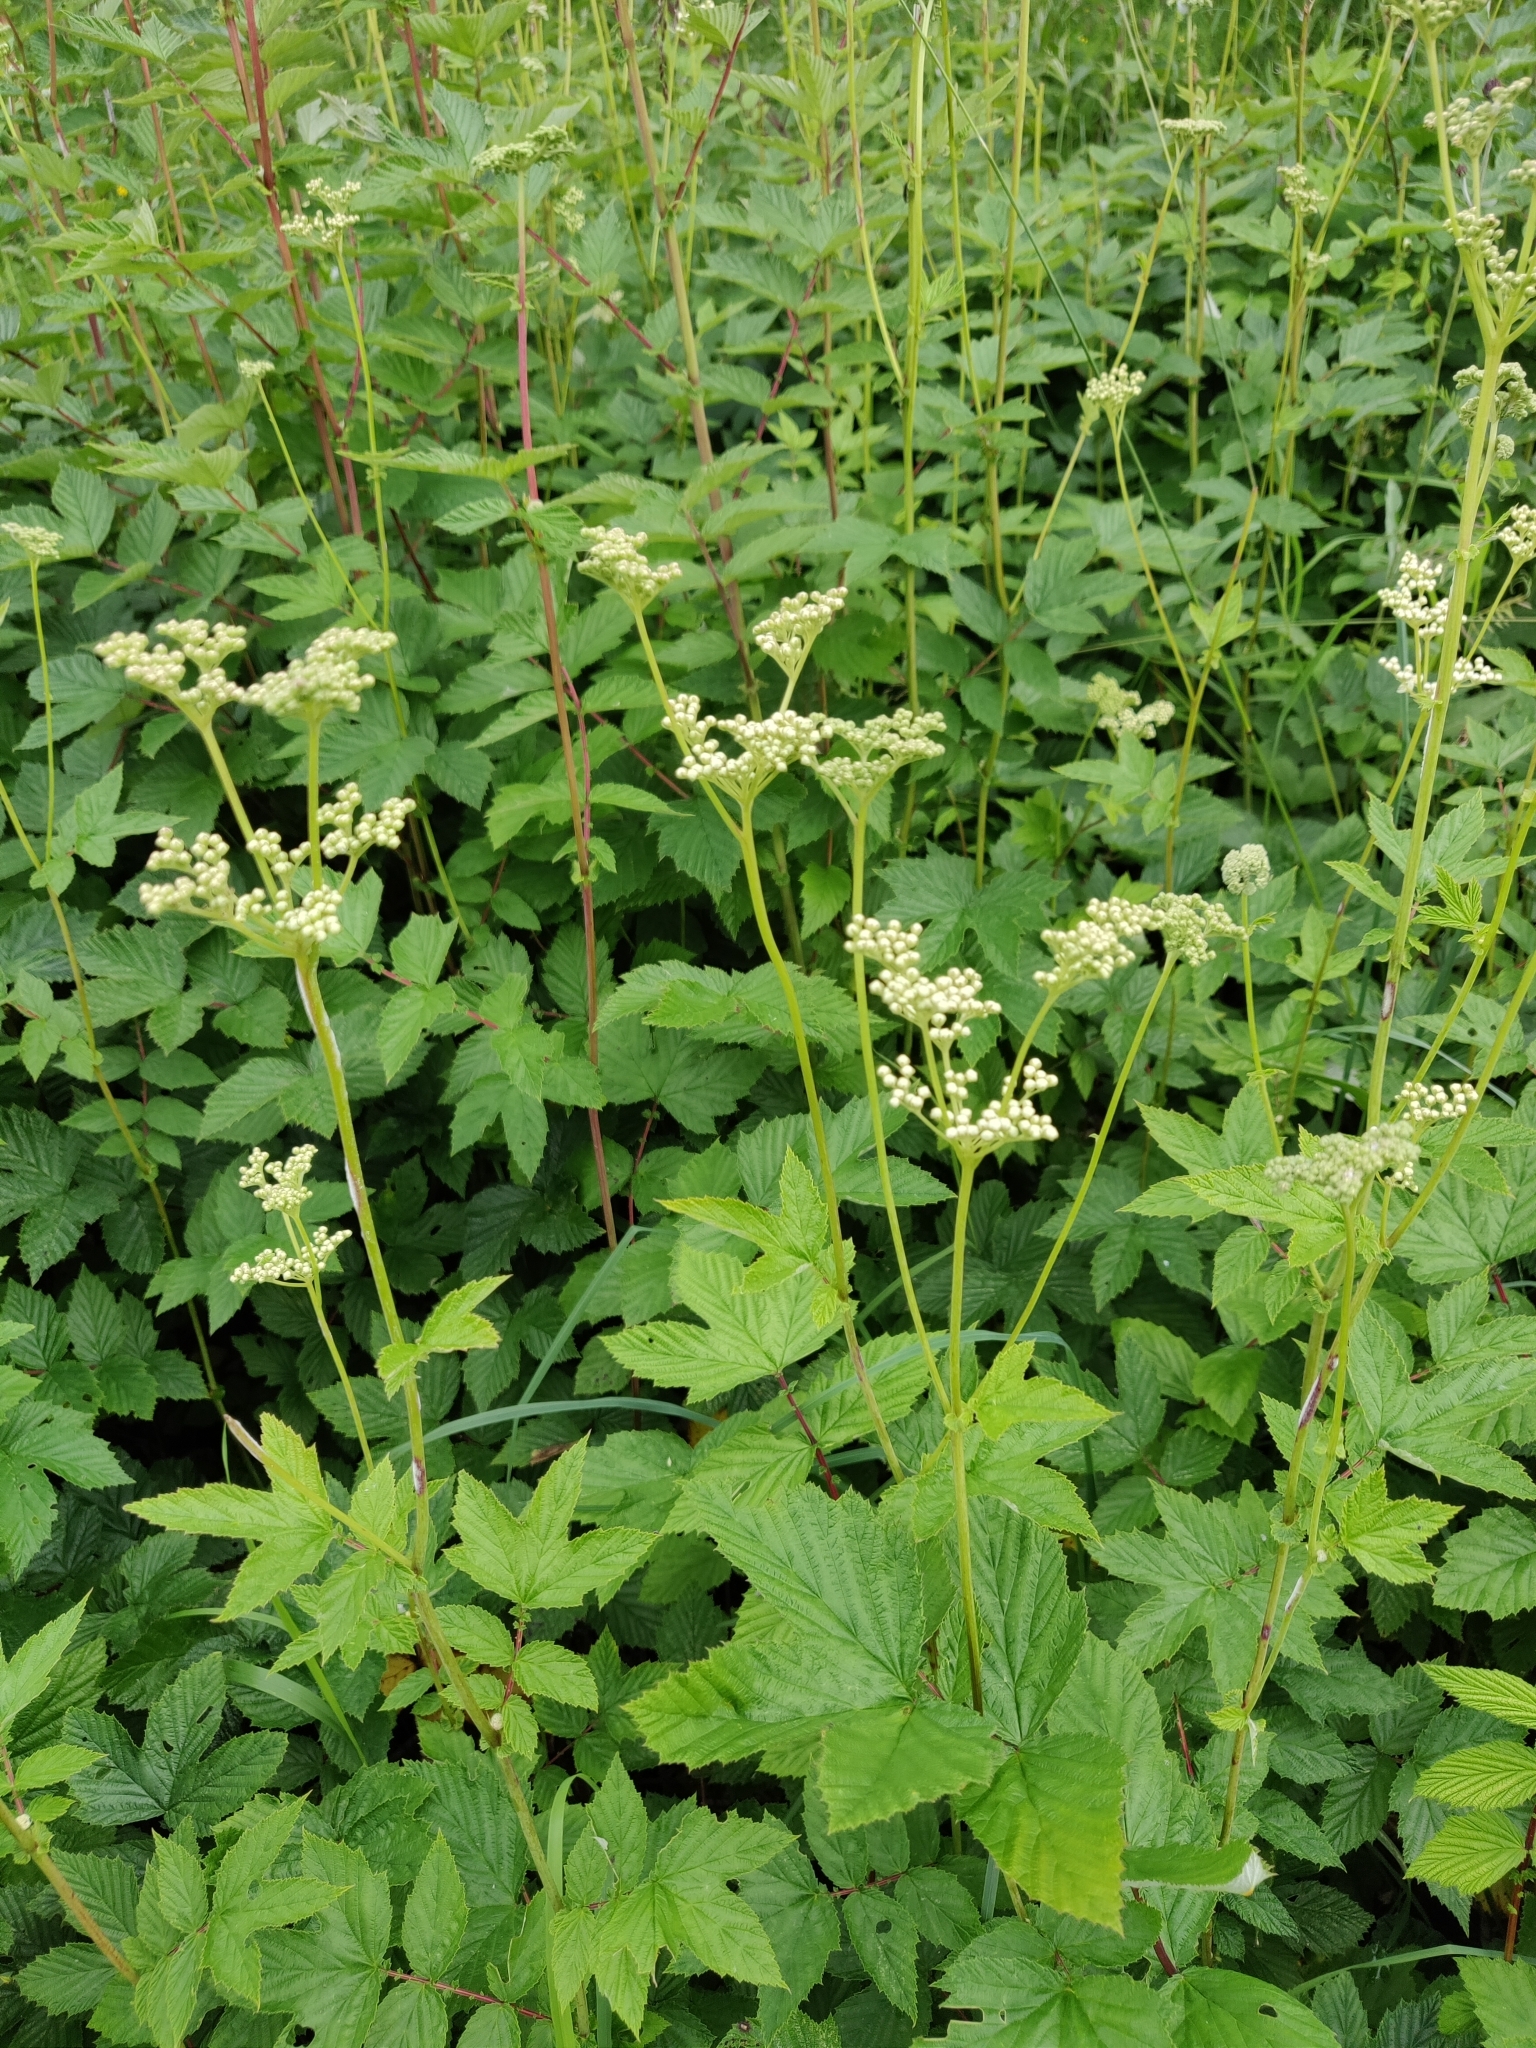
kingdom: Plantae
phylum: Tracheophyta
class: Magnoliopsida
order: Rosales
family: Rosaceae
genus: Filipendula
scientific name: Filipendula ulmaria
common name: Meadowsweet
